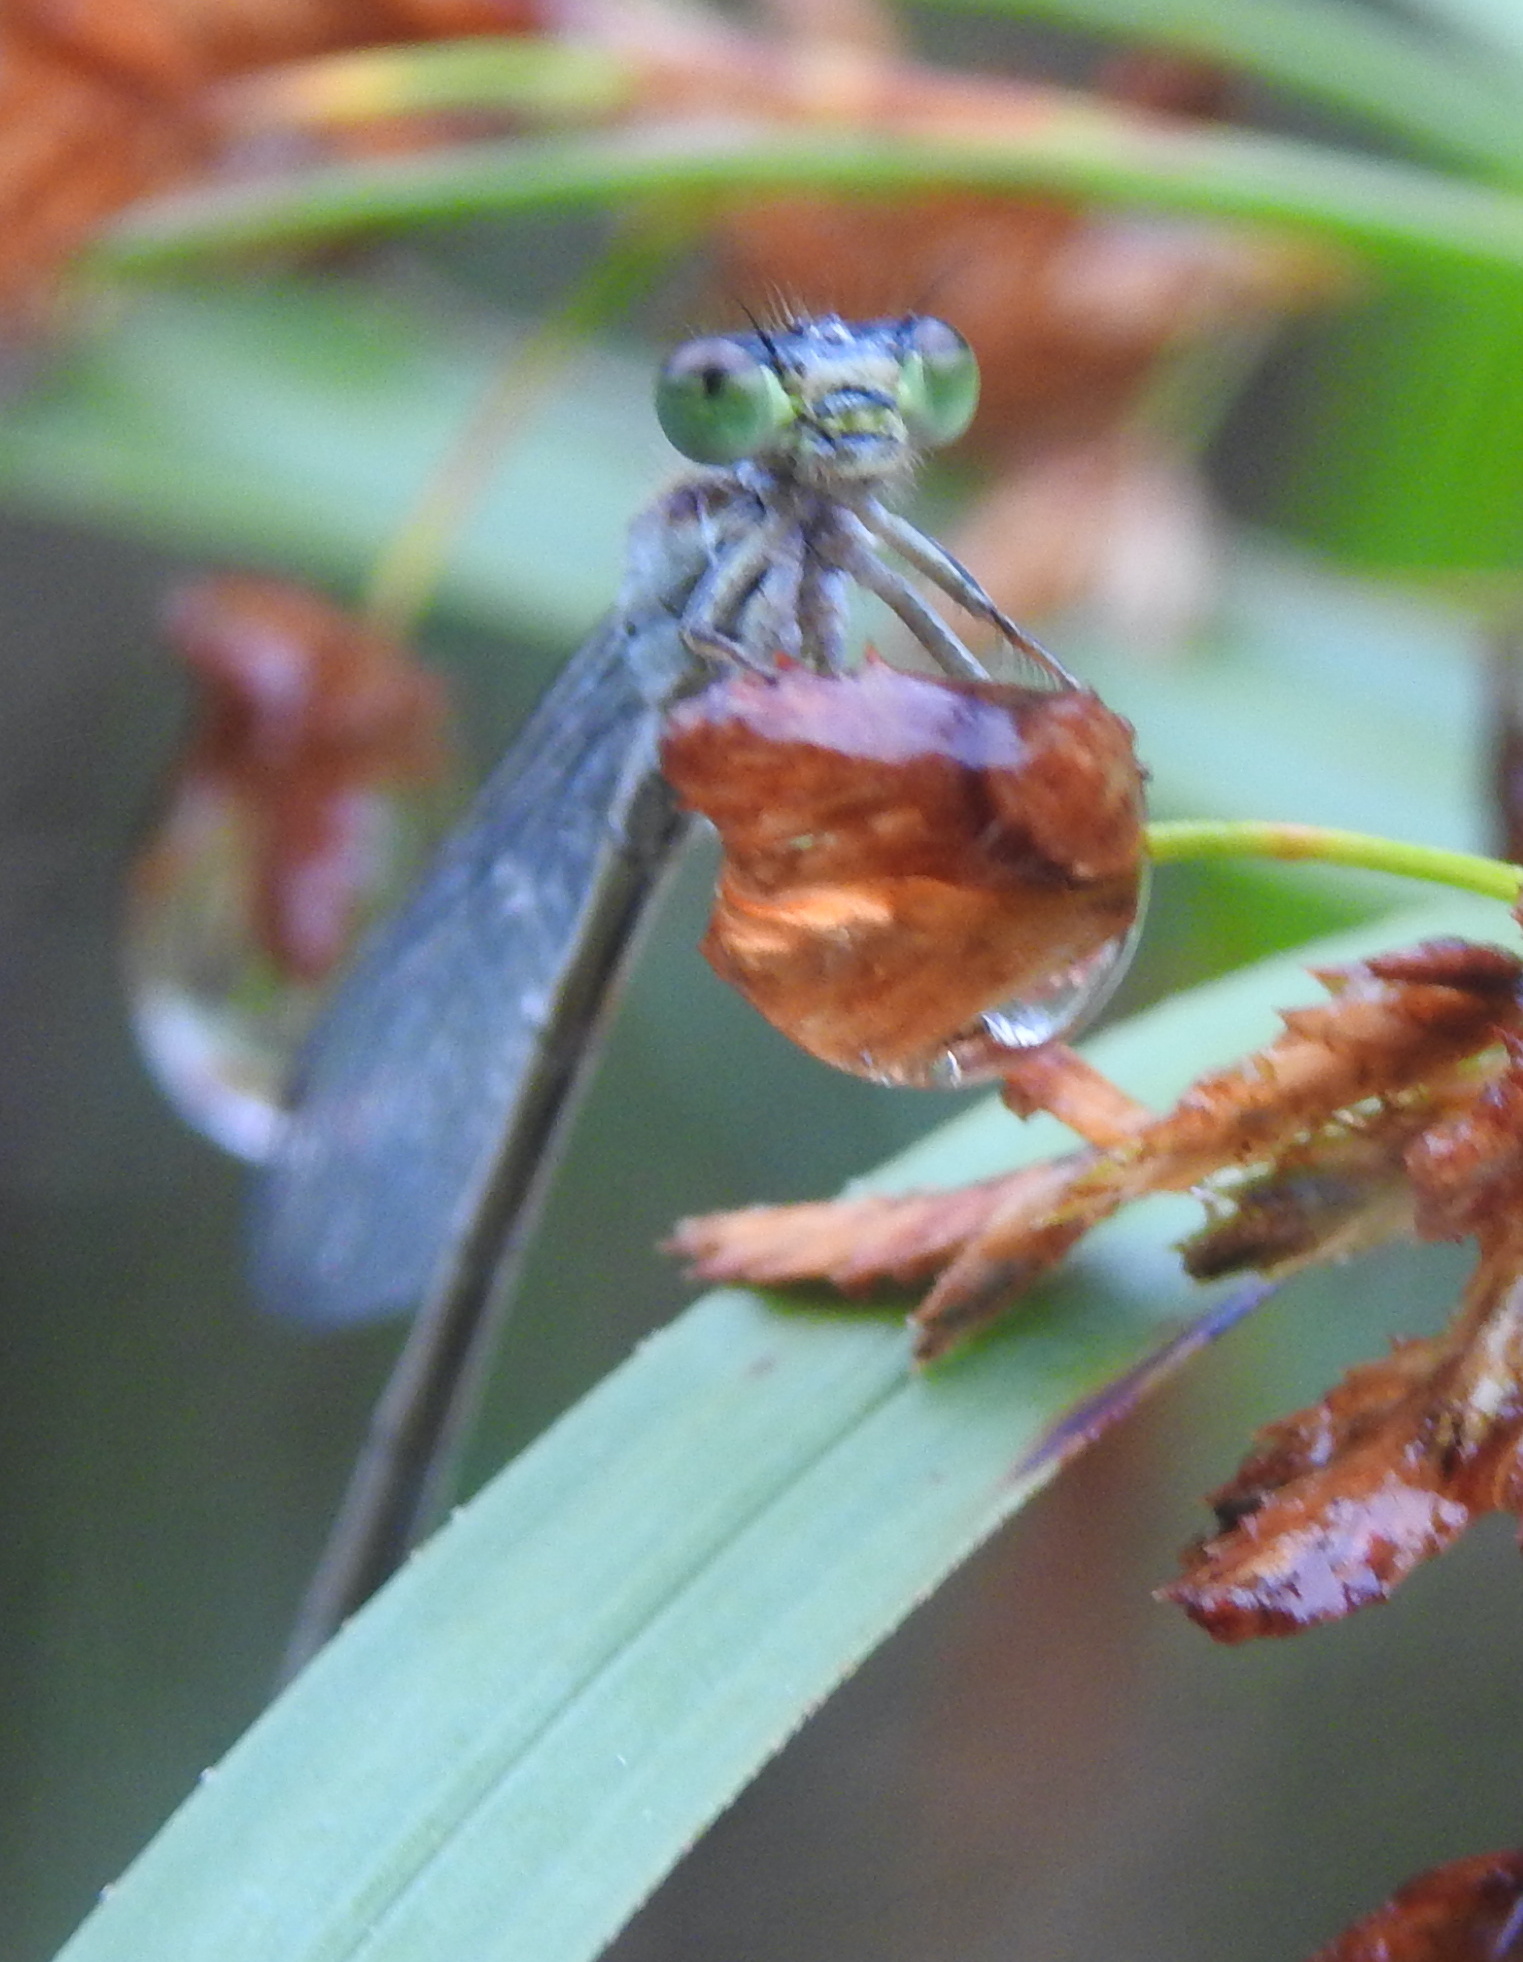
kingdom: Animalia
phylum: Arthropoda
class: Insecta
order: Odonata
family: Coenagrionidae
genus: Ischnura
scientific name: Ischnura senegalensis
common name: Tropical bluetail
